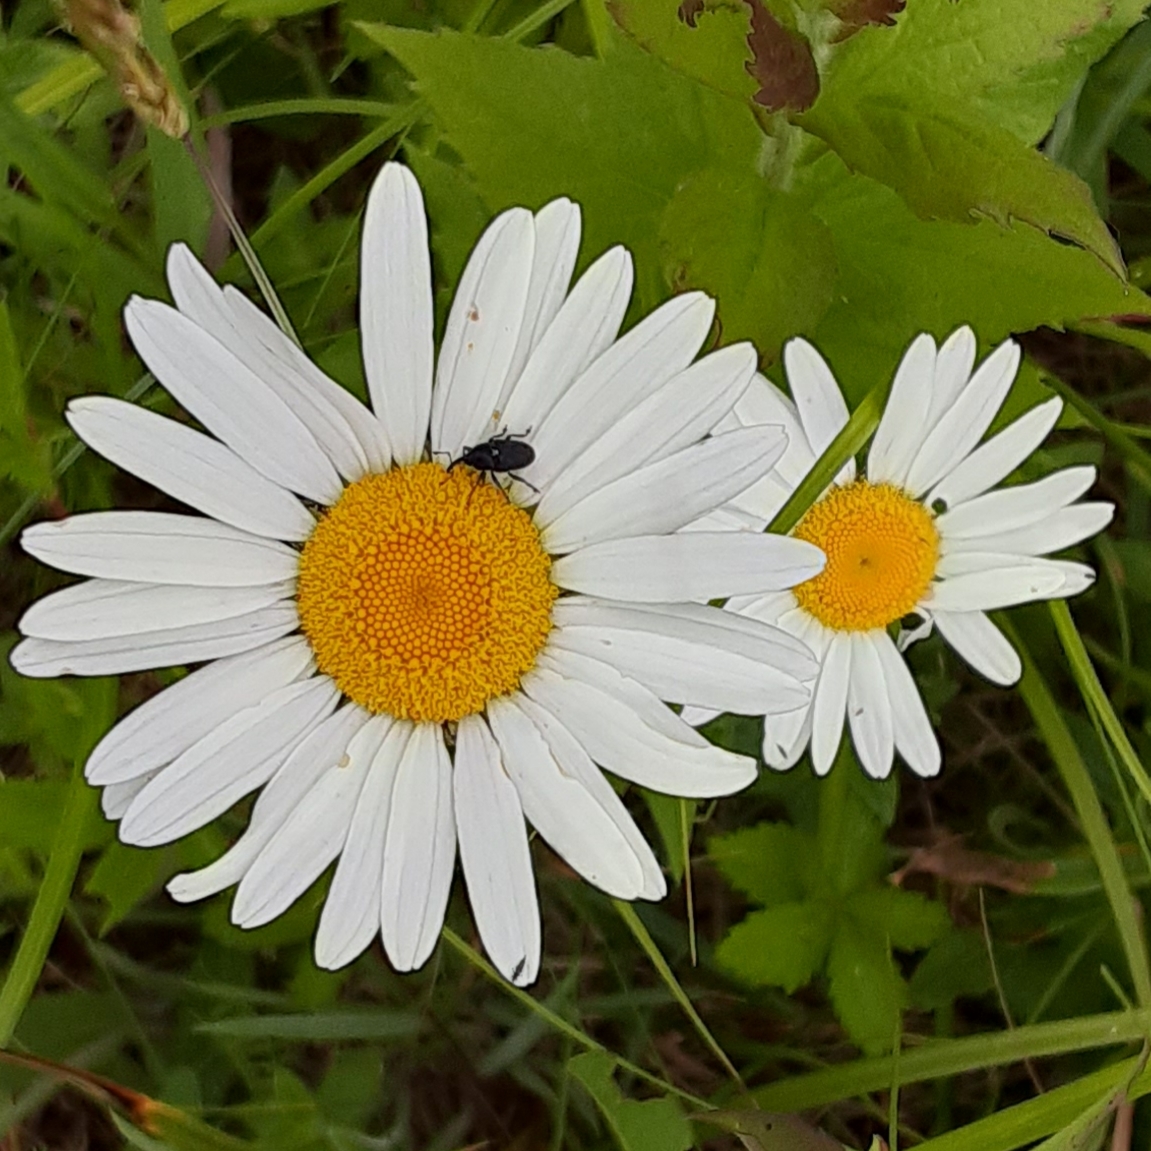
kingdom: Animalia
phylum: Arthropoda
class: Insecta
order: Coleoptera
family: Curculionidae
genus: Odontocorynus
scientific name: Odontocorynus salebrosus
